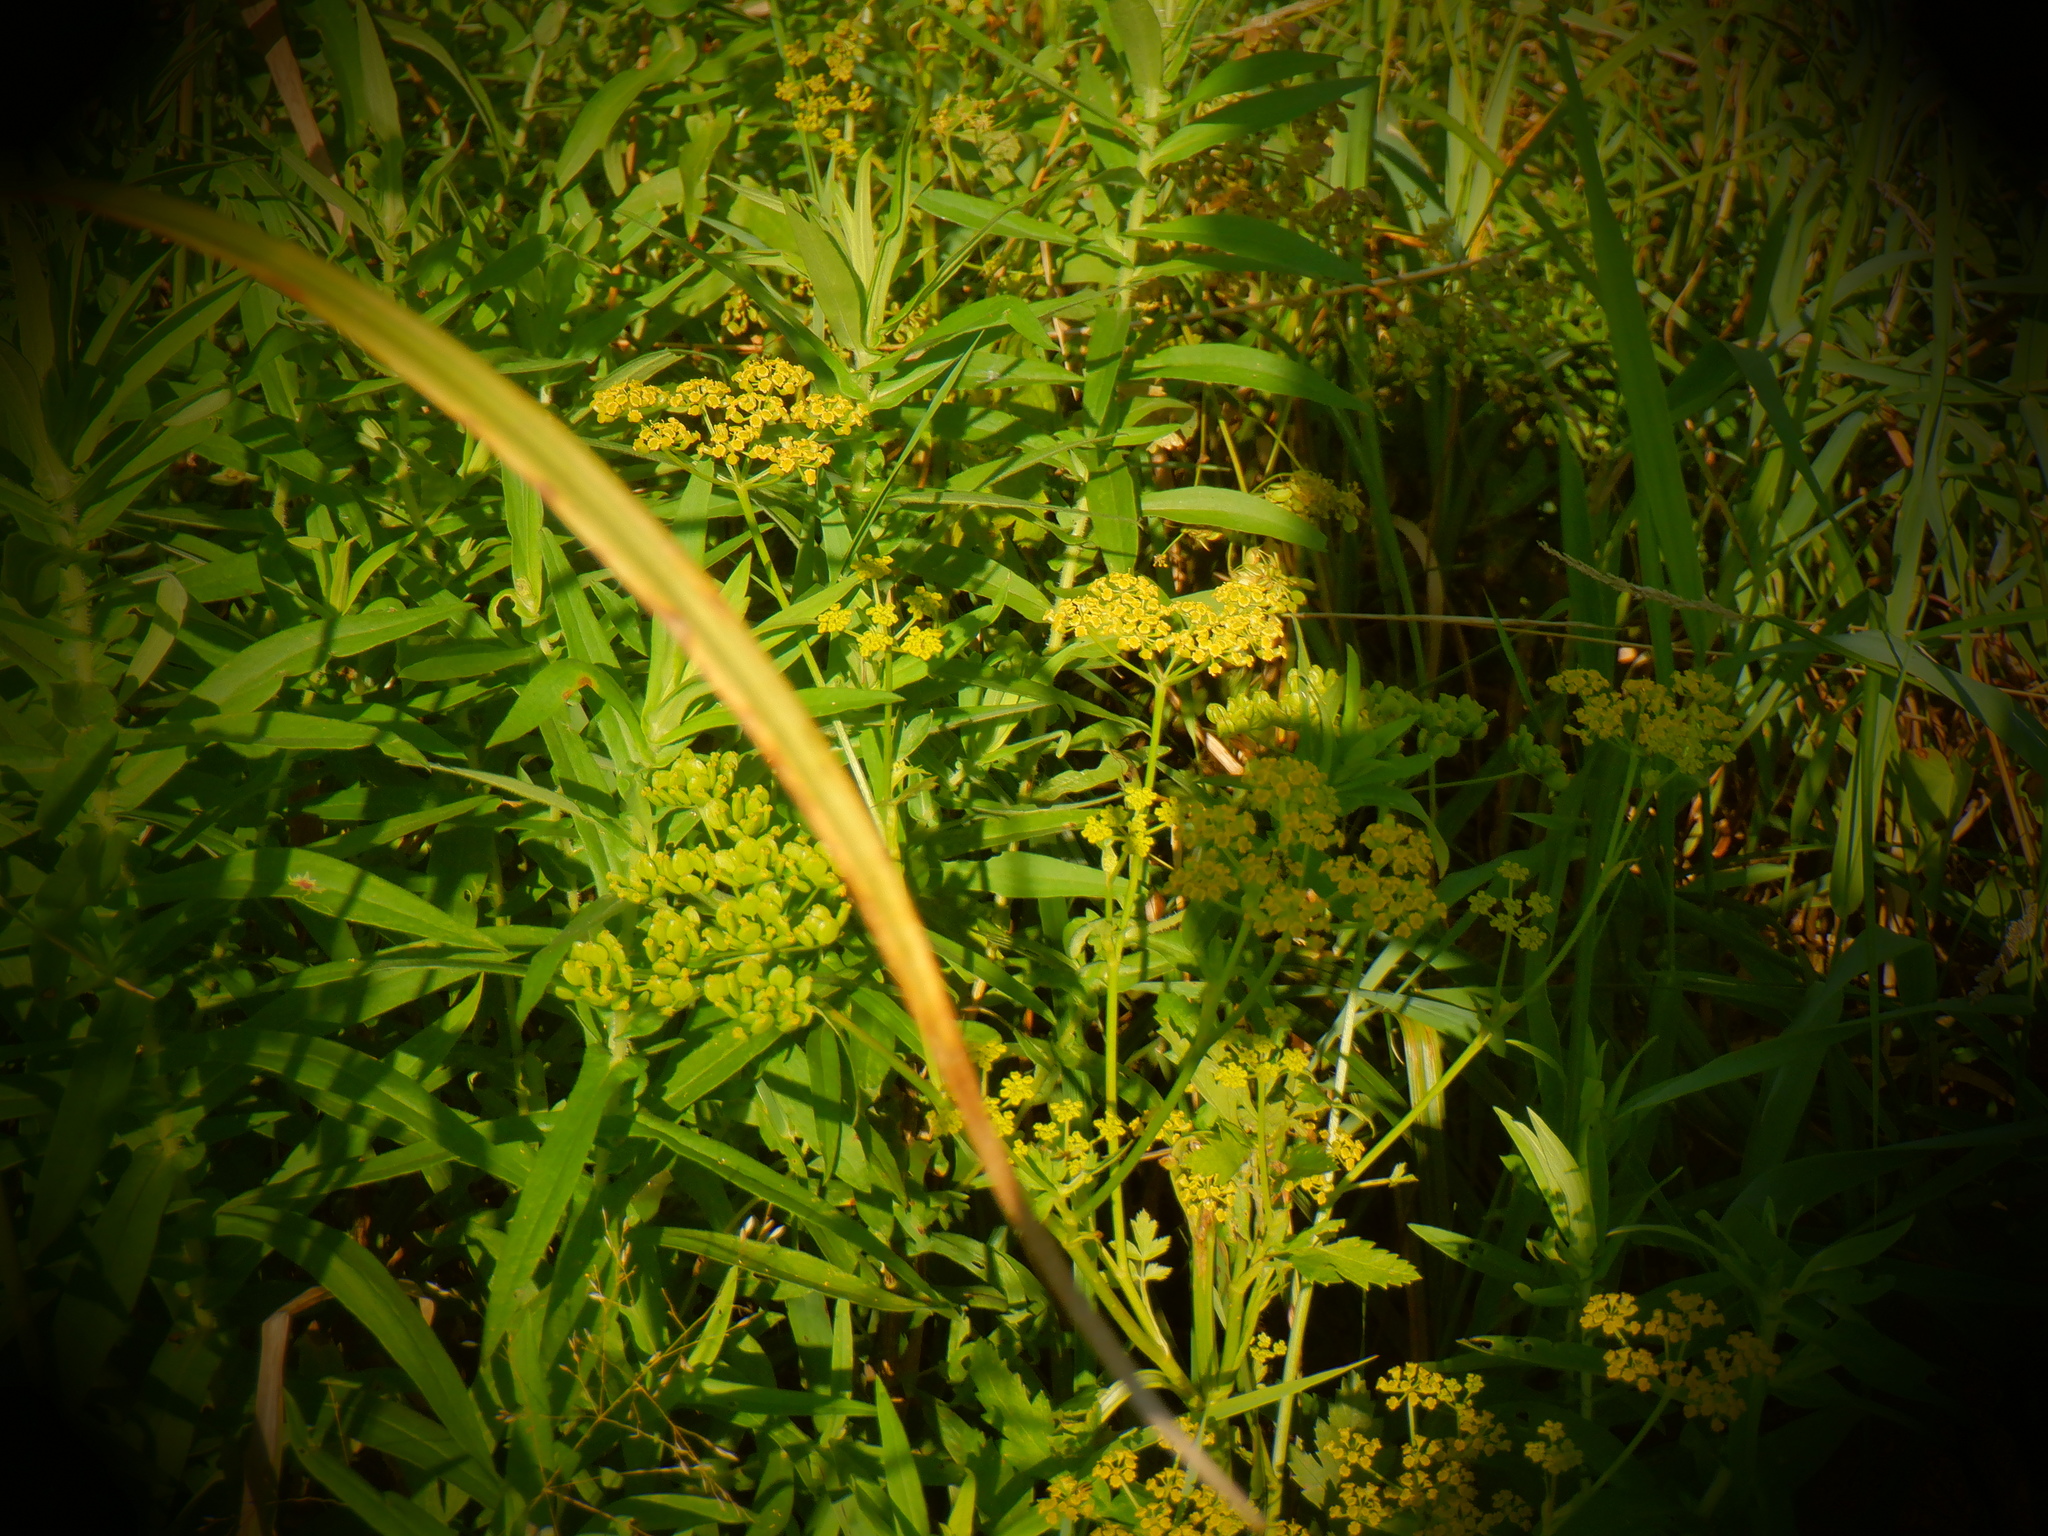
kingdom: Plantae
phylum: Tracheophyta
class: Magnoliopsida
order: Apiales
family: Apiaceae
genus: Pastinaca
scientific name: Pastinaca sativa
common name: Wild parsnip
